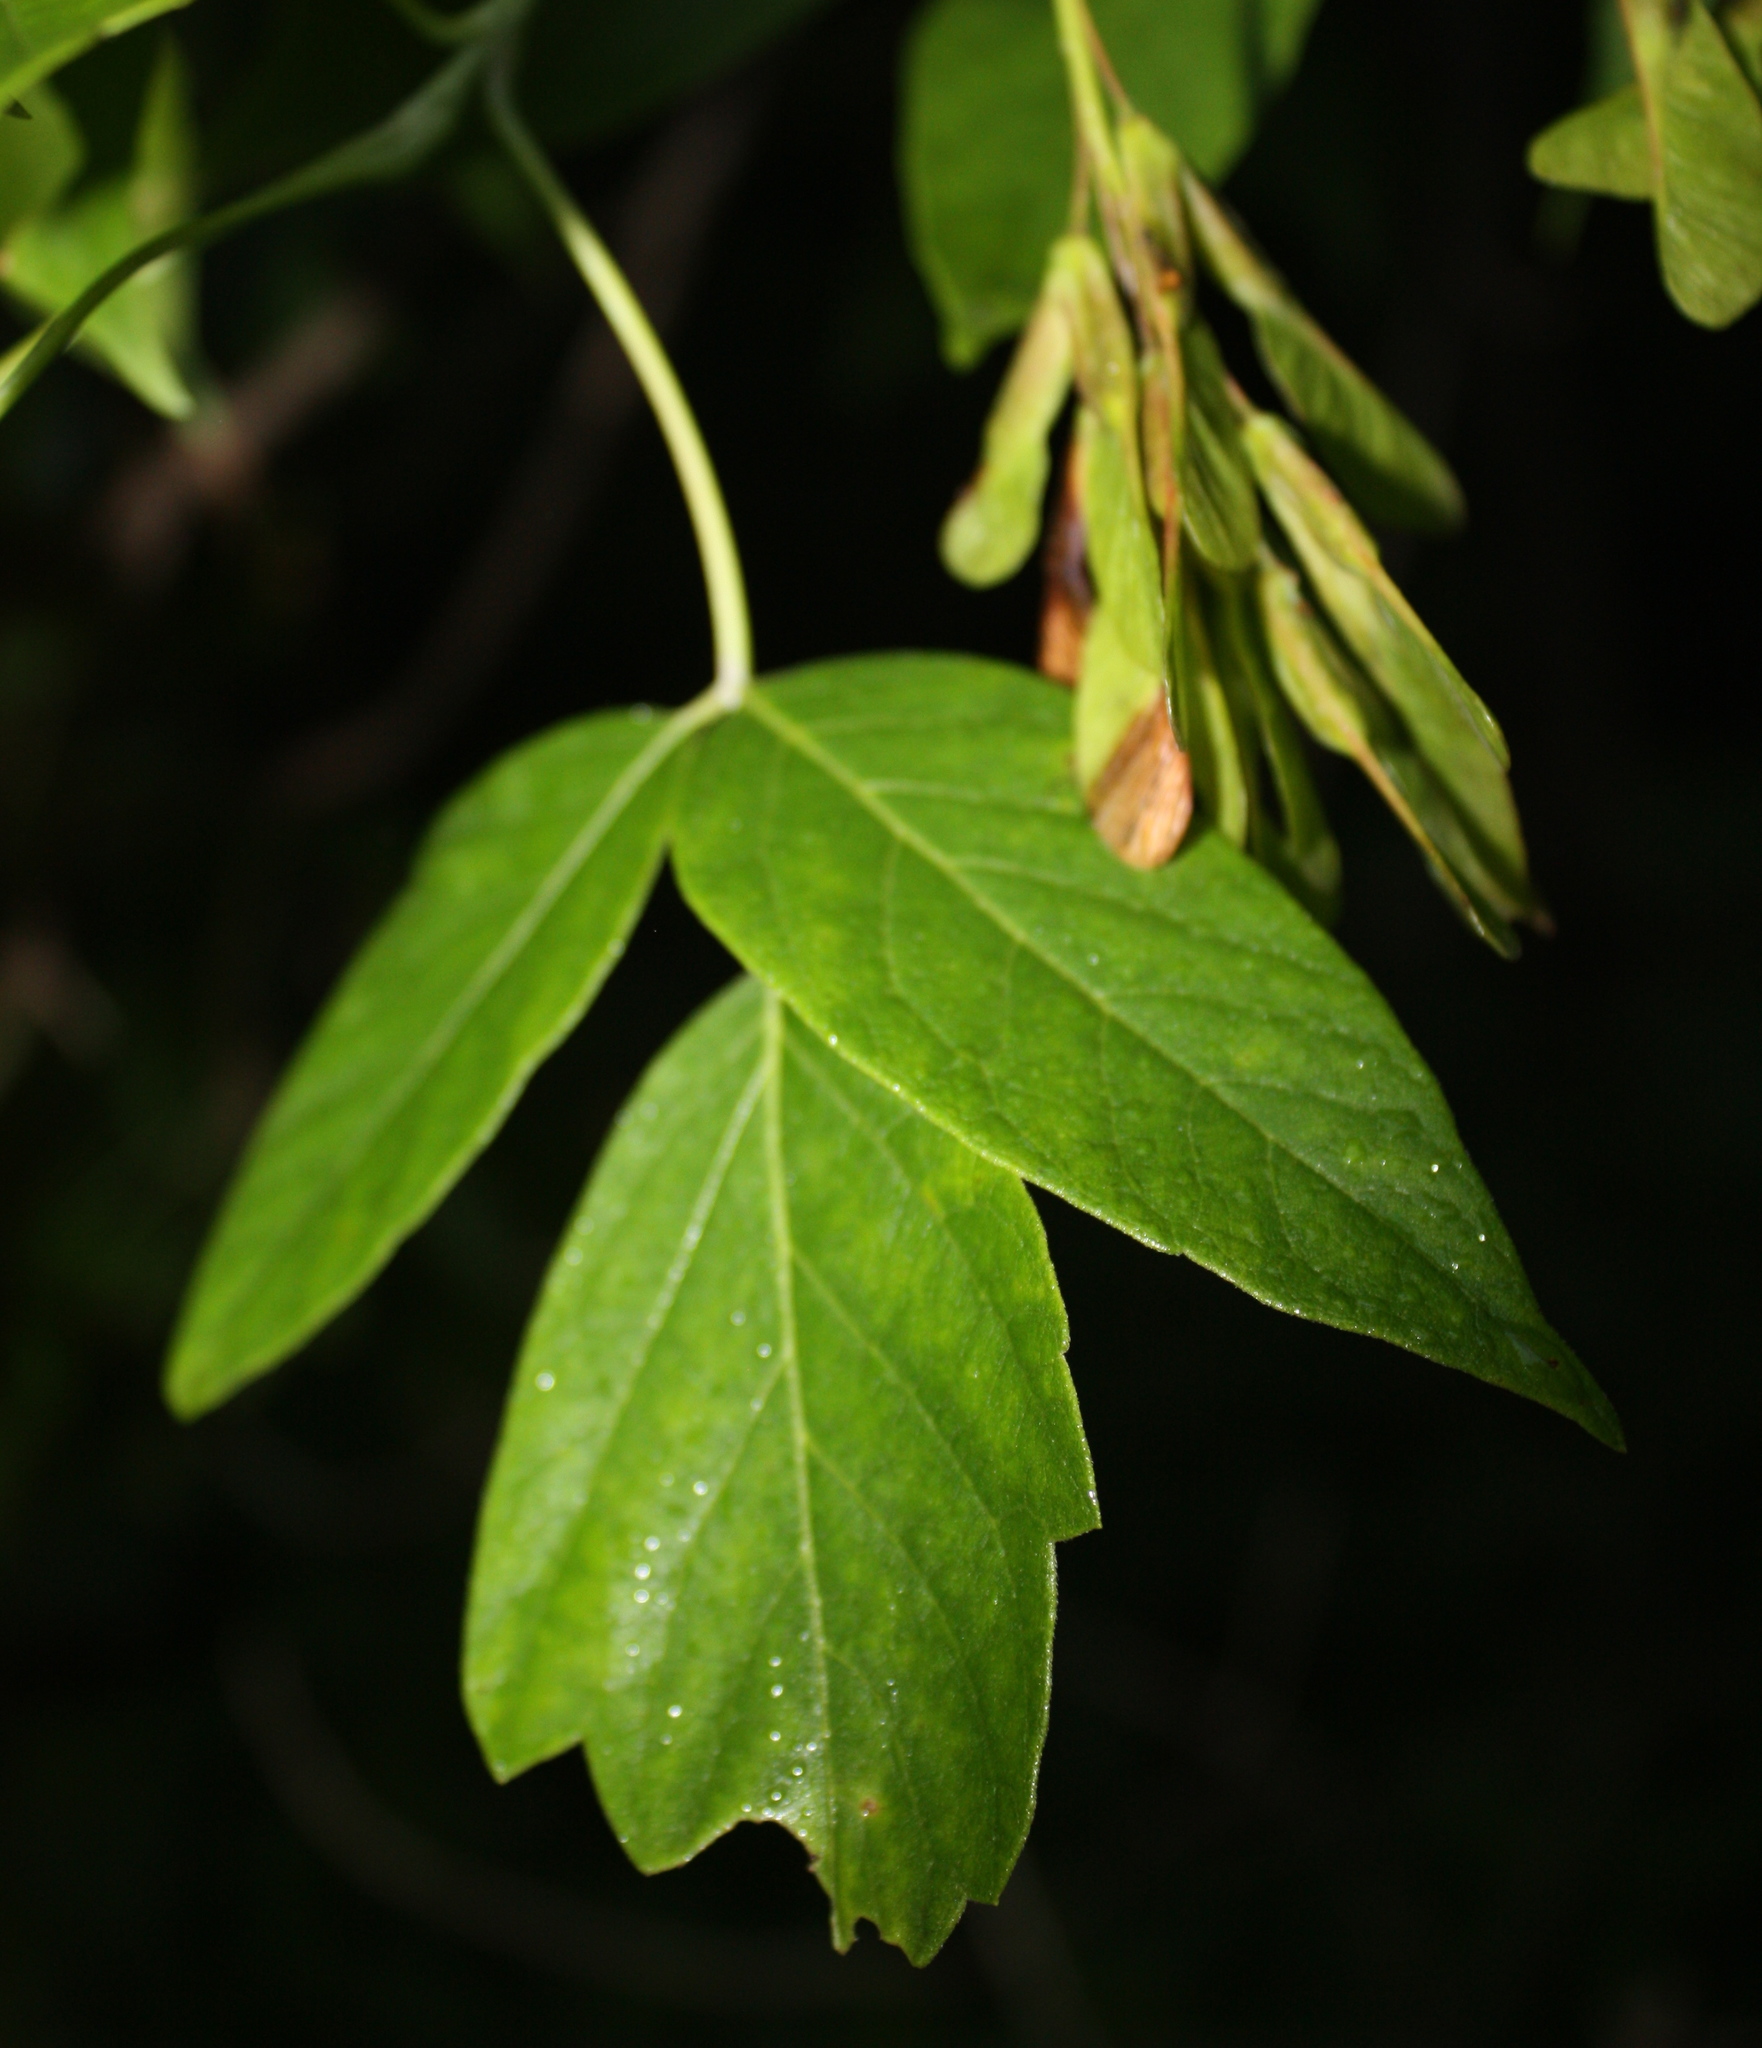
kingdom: Plantae
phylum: Tracheophyta
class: Magnoliopsida
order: Sapindales
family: Sapindaceae
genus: Acer
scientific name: Acer negundo
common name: Ashleaf maple
